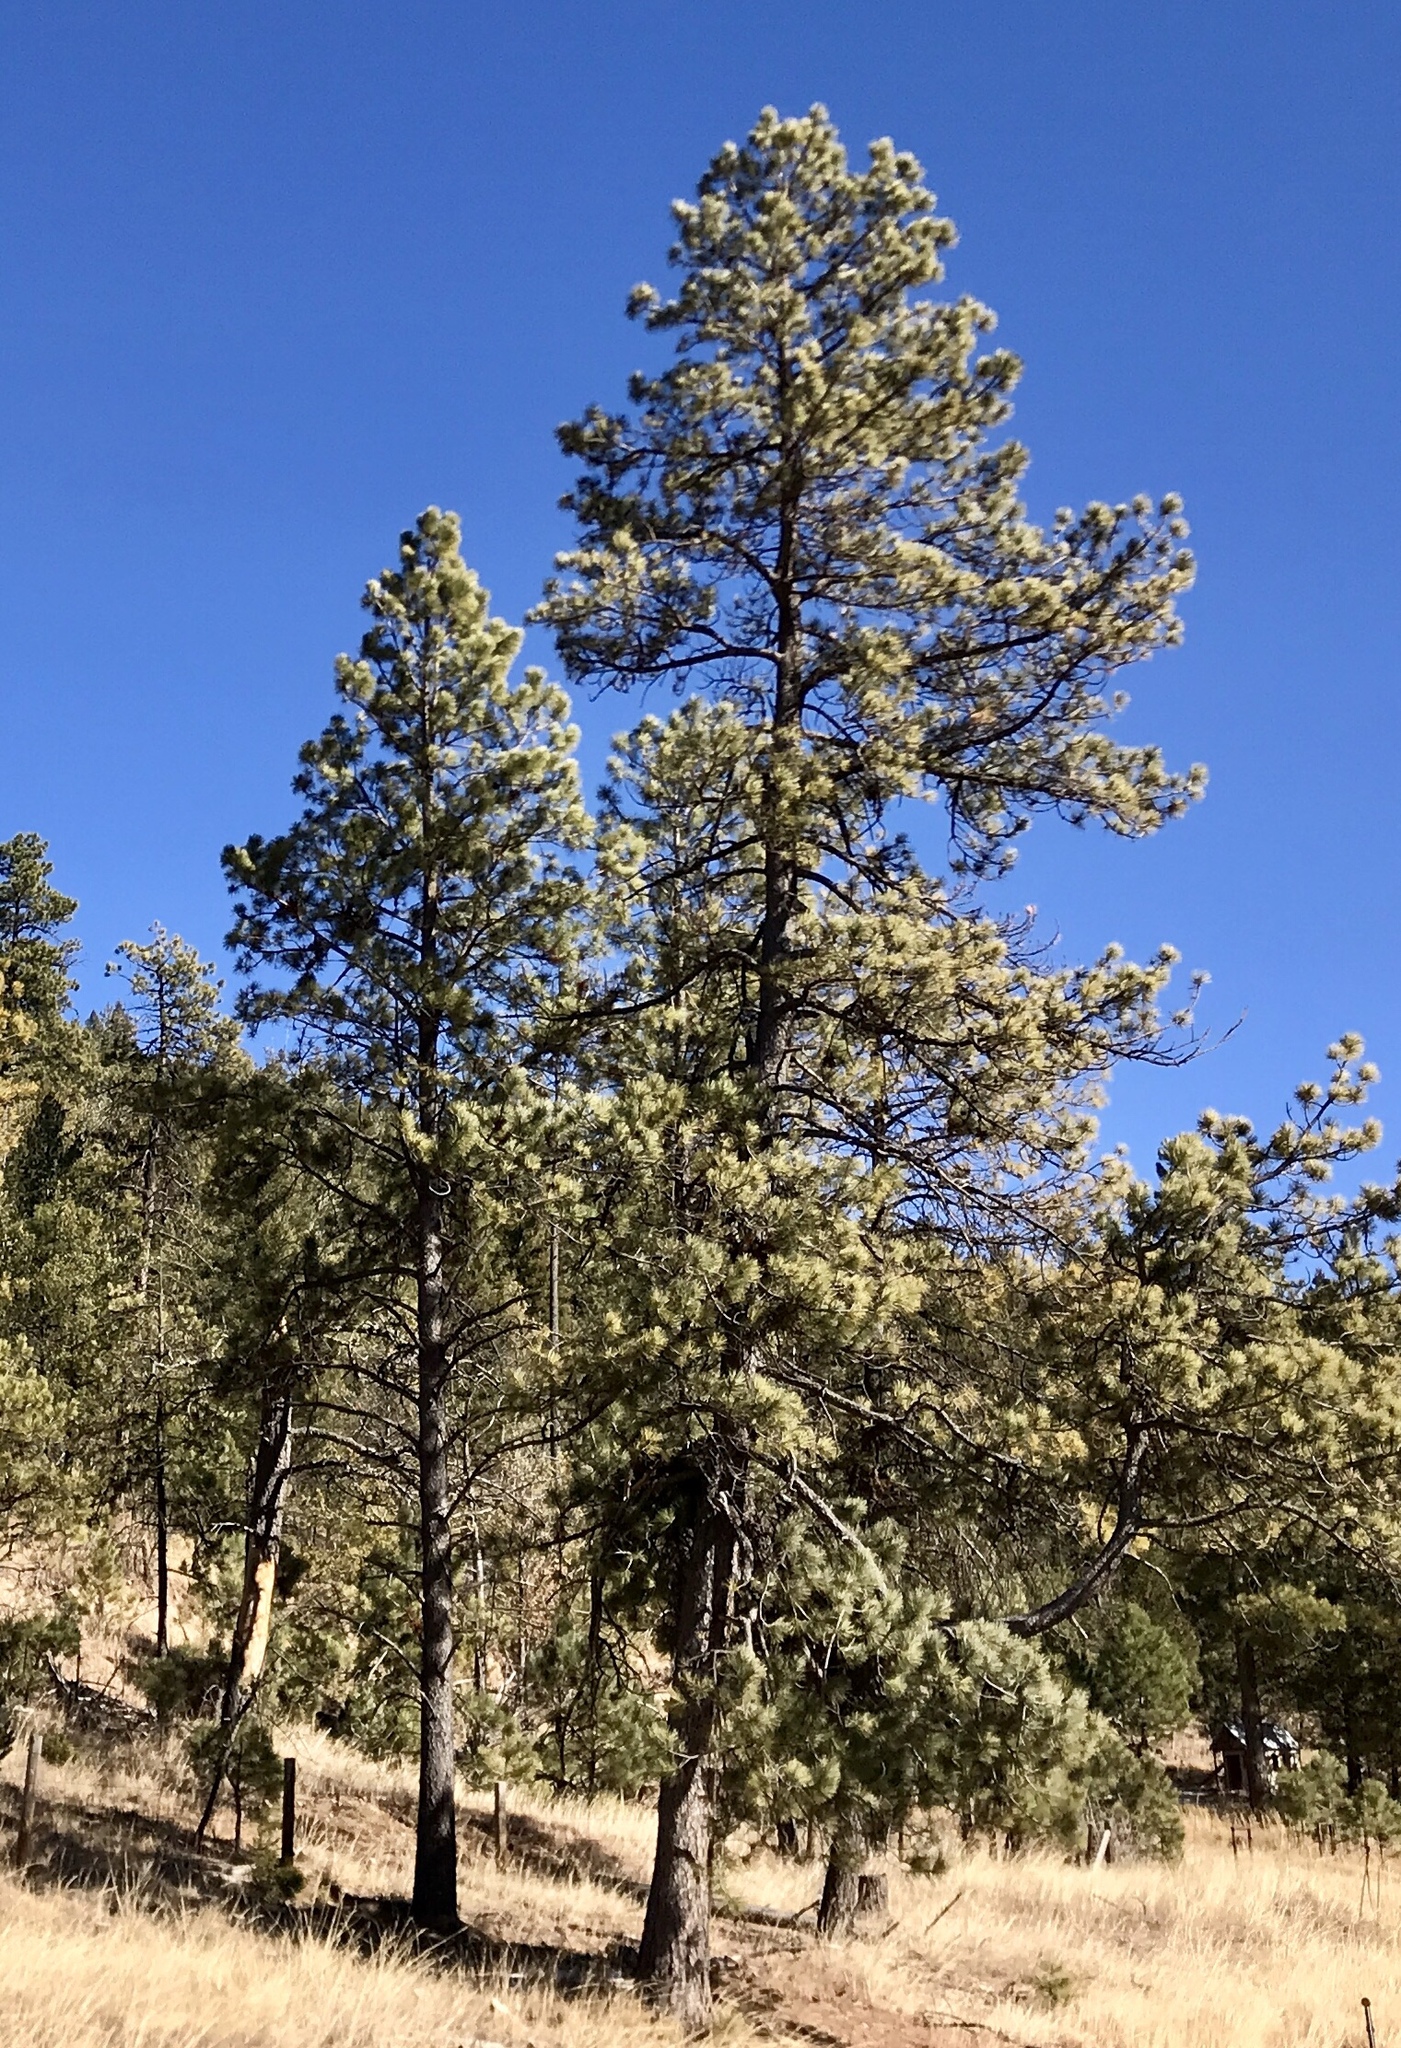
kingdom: Plantae
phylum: Tracheophyta
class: Pinopsida
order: Pinales
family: Pinaceae
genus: Pinus
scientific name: Pinus ponderosa
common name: Western yellow-pine
